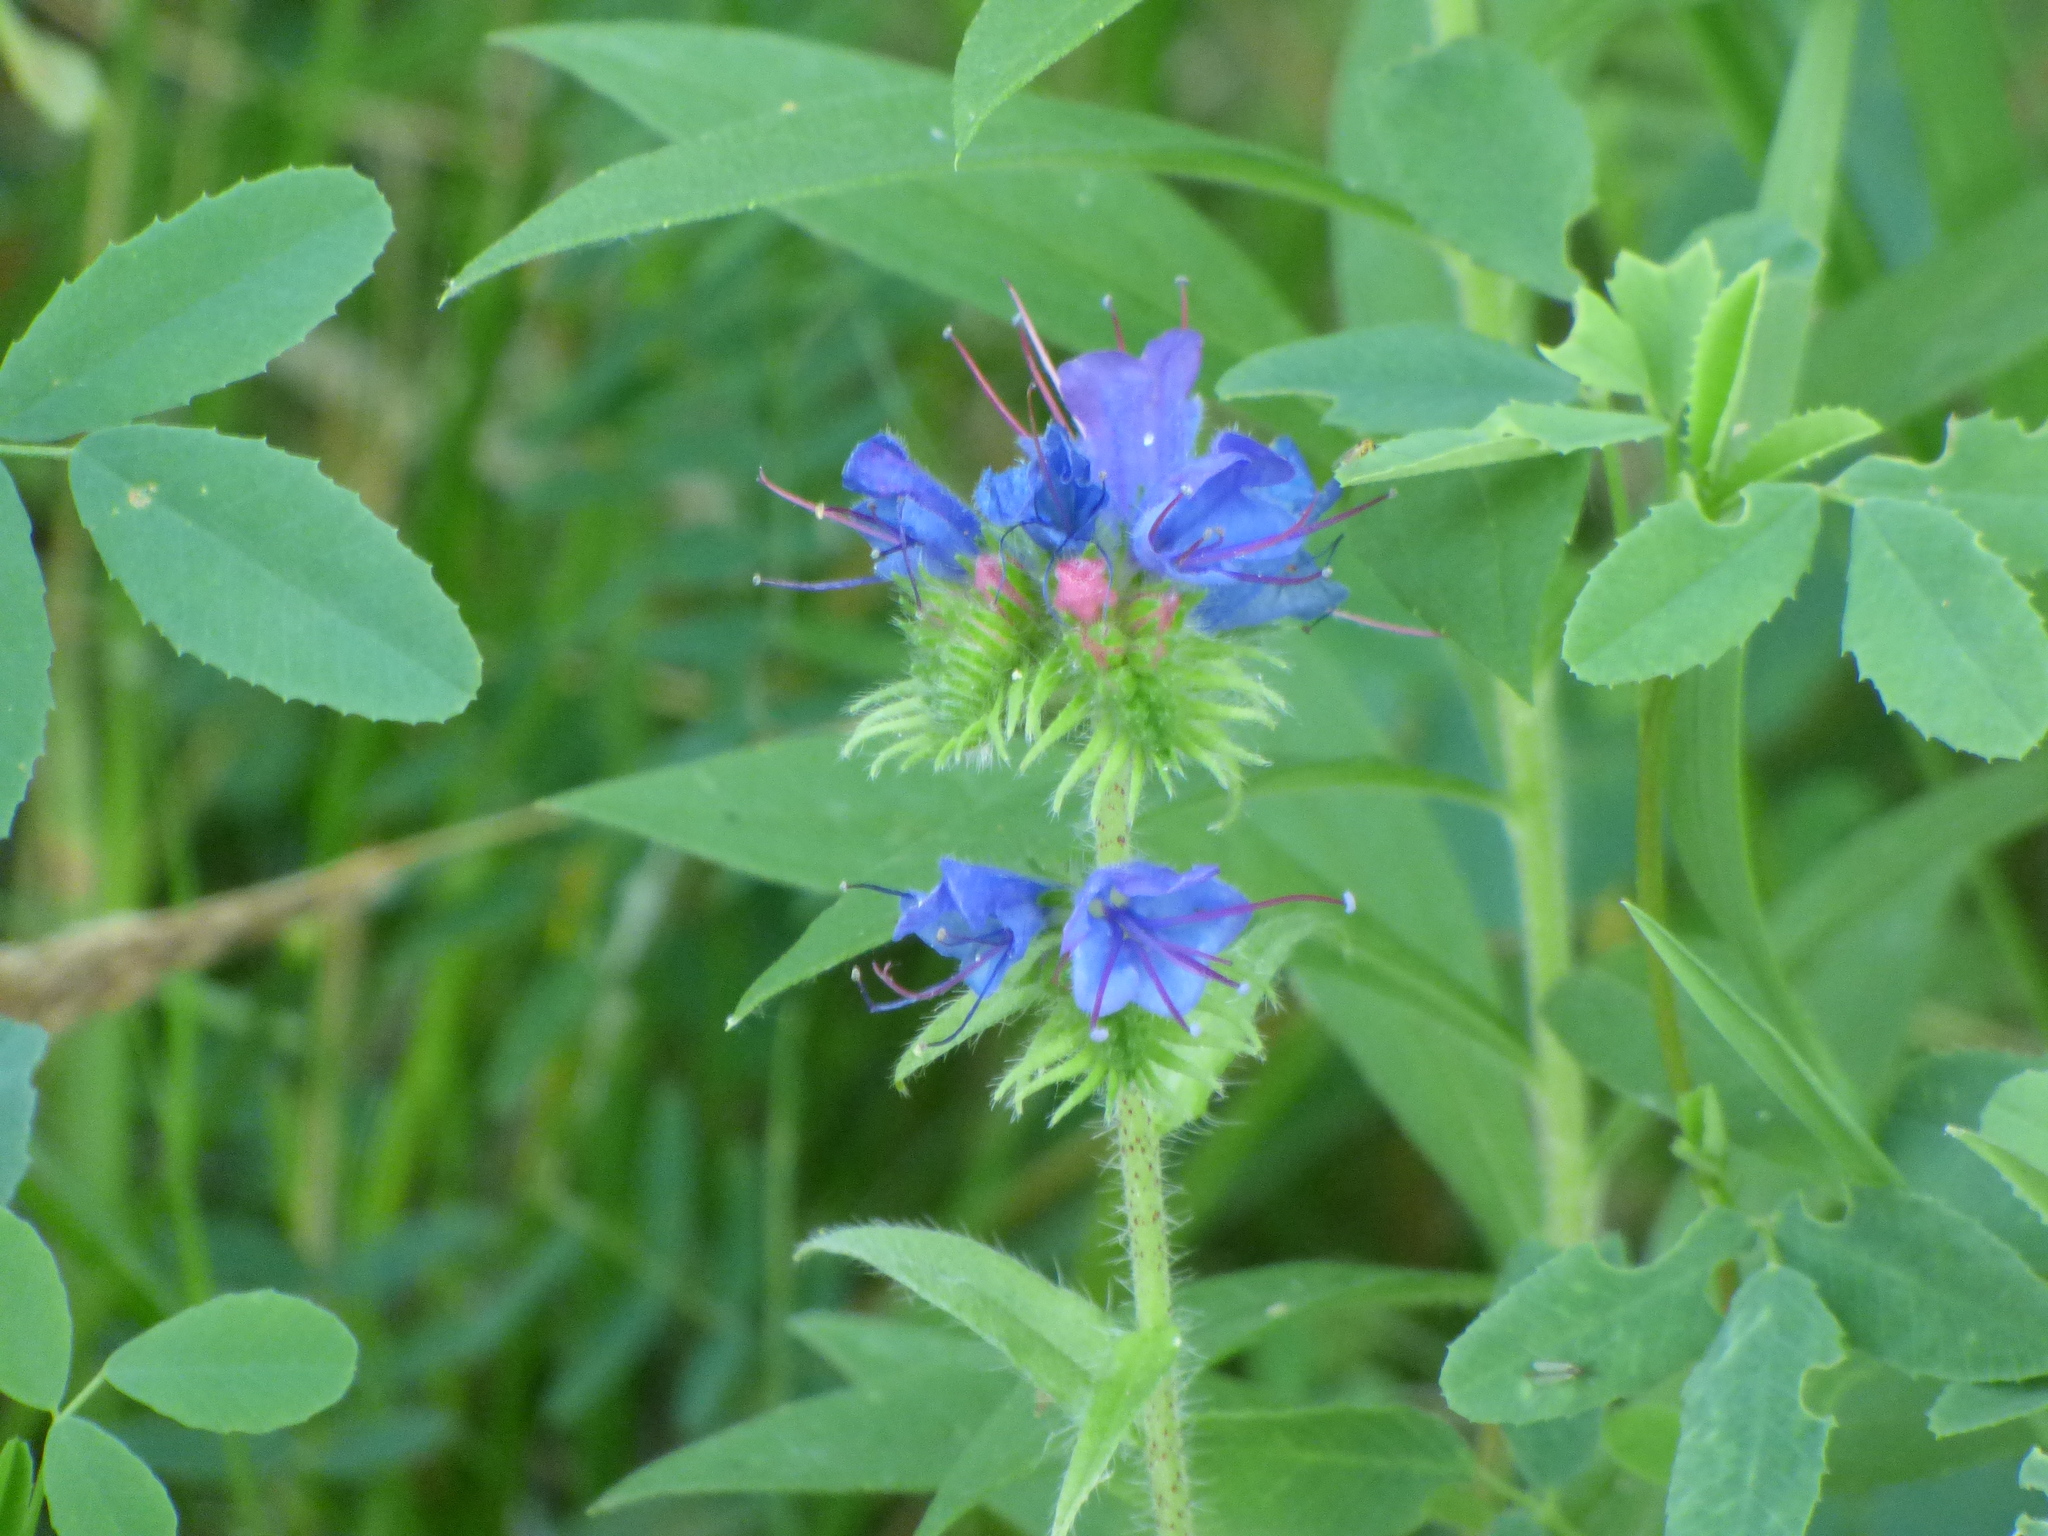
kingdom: Plantae
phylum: Tracheophyta
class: Magnoliopsida
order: Boraginales
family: Boraginaceae
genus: Echium
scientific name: Echium vulgare
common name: Common viper's bugloss
